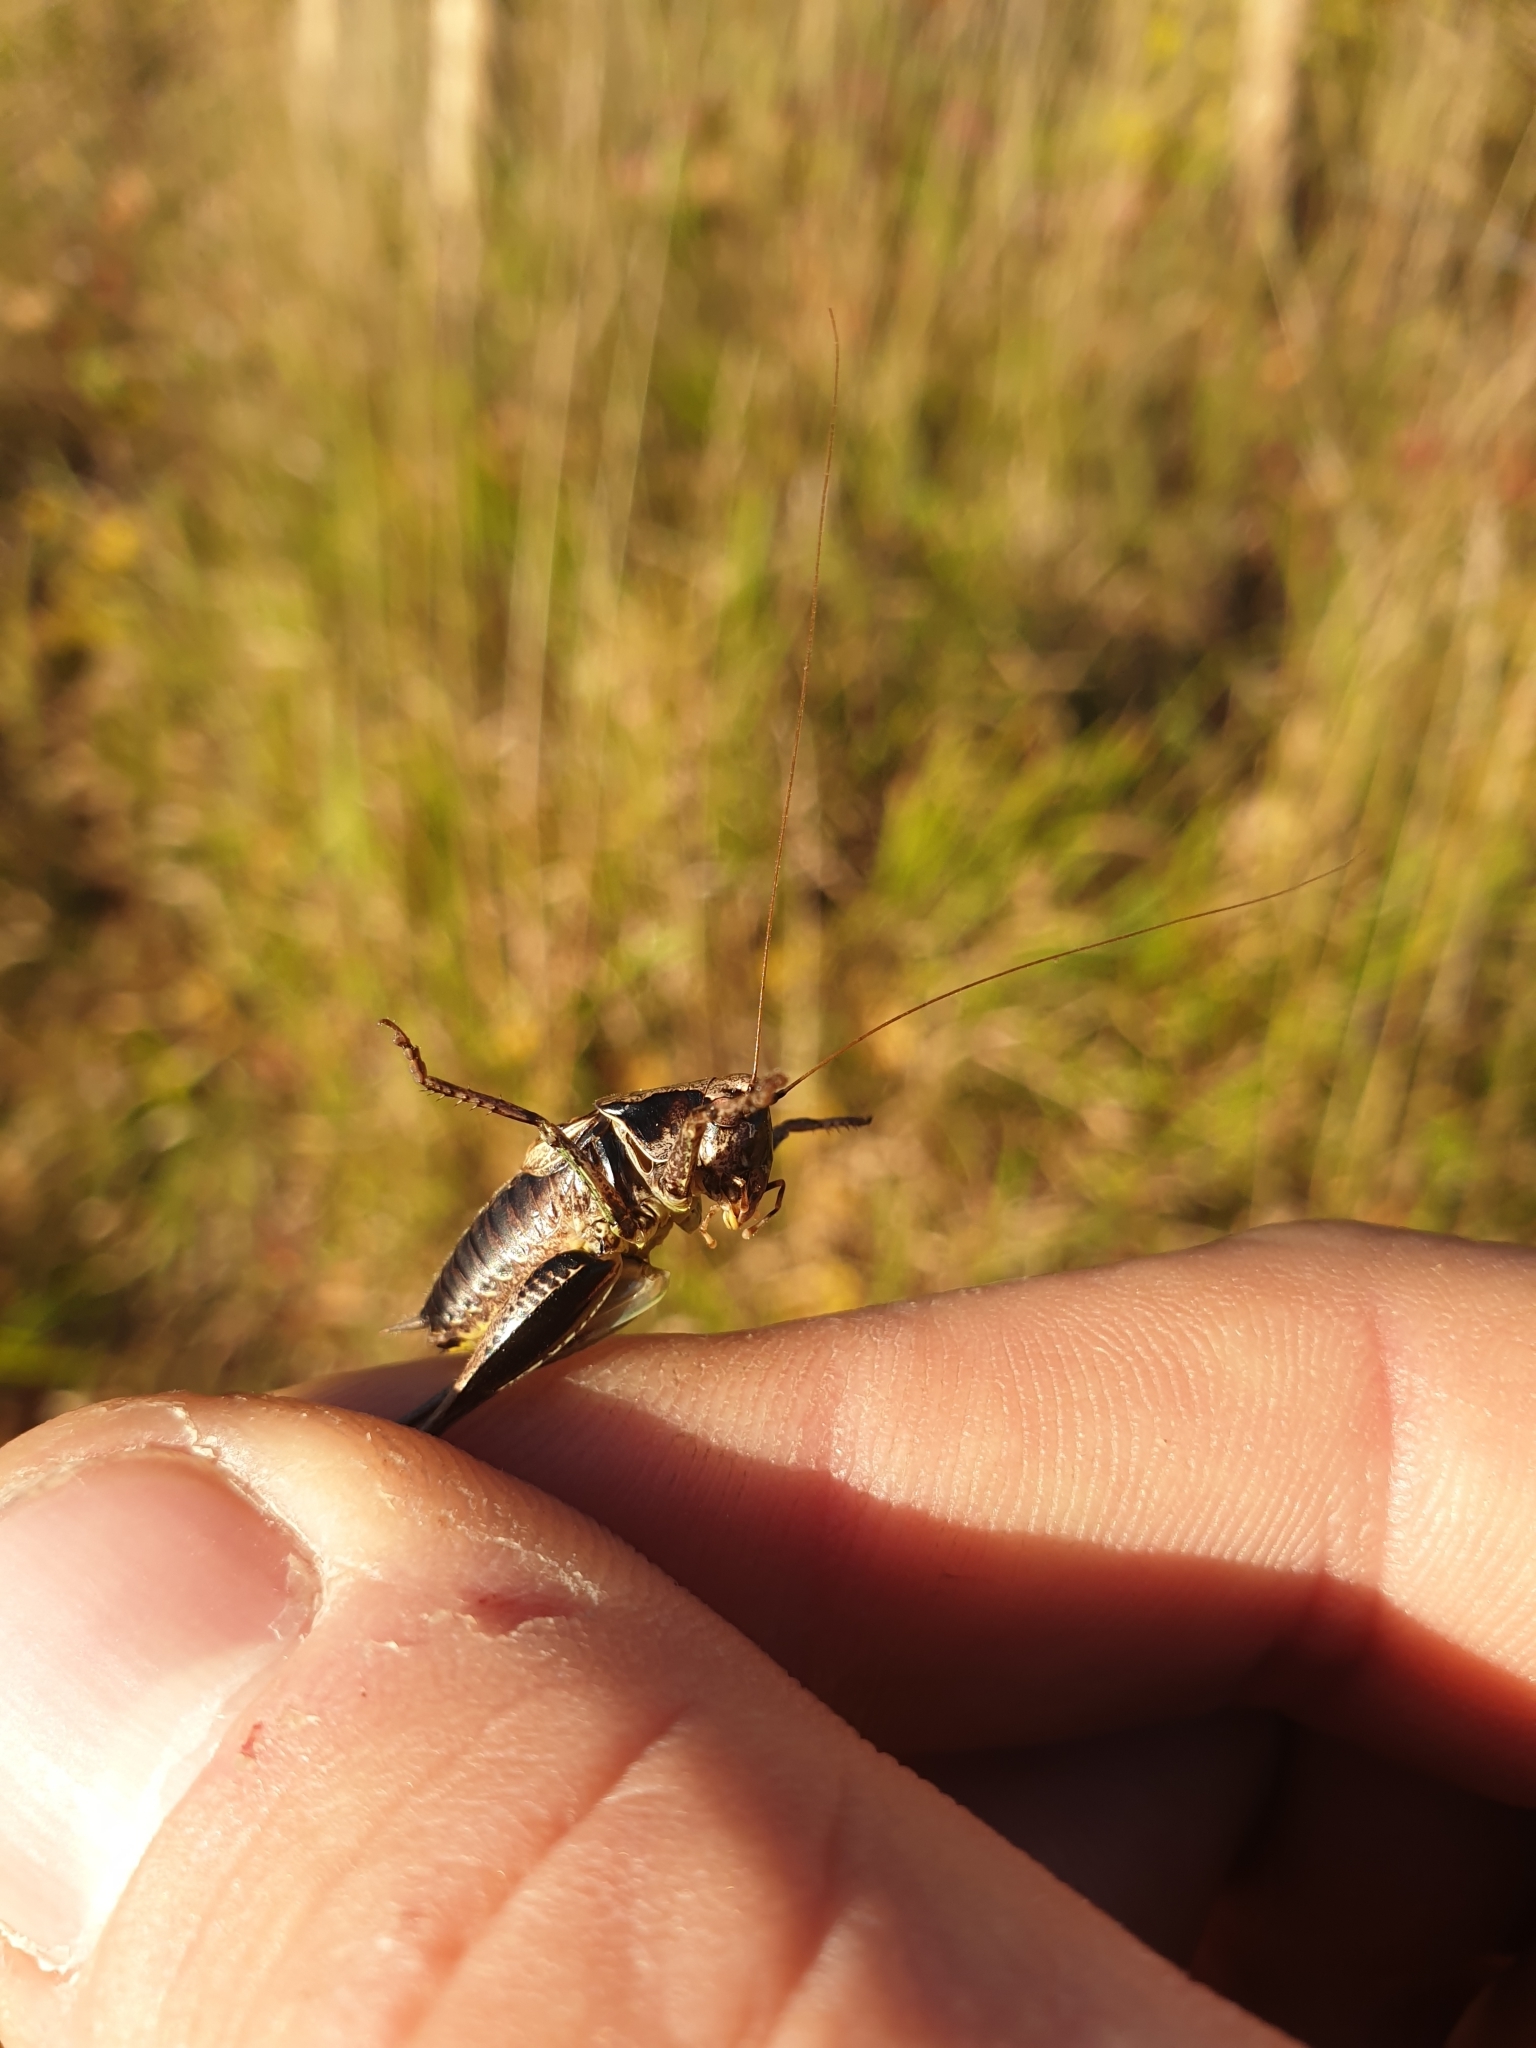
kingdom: Animalia
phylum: Arthropoda
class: Insecta
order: Orthoptera
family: Tettigoniidae
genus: Pholidoptera
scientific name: Pholidoptera griseoaptera
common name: Dark bush-cricket
